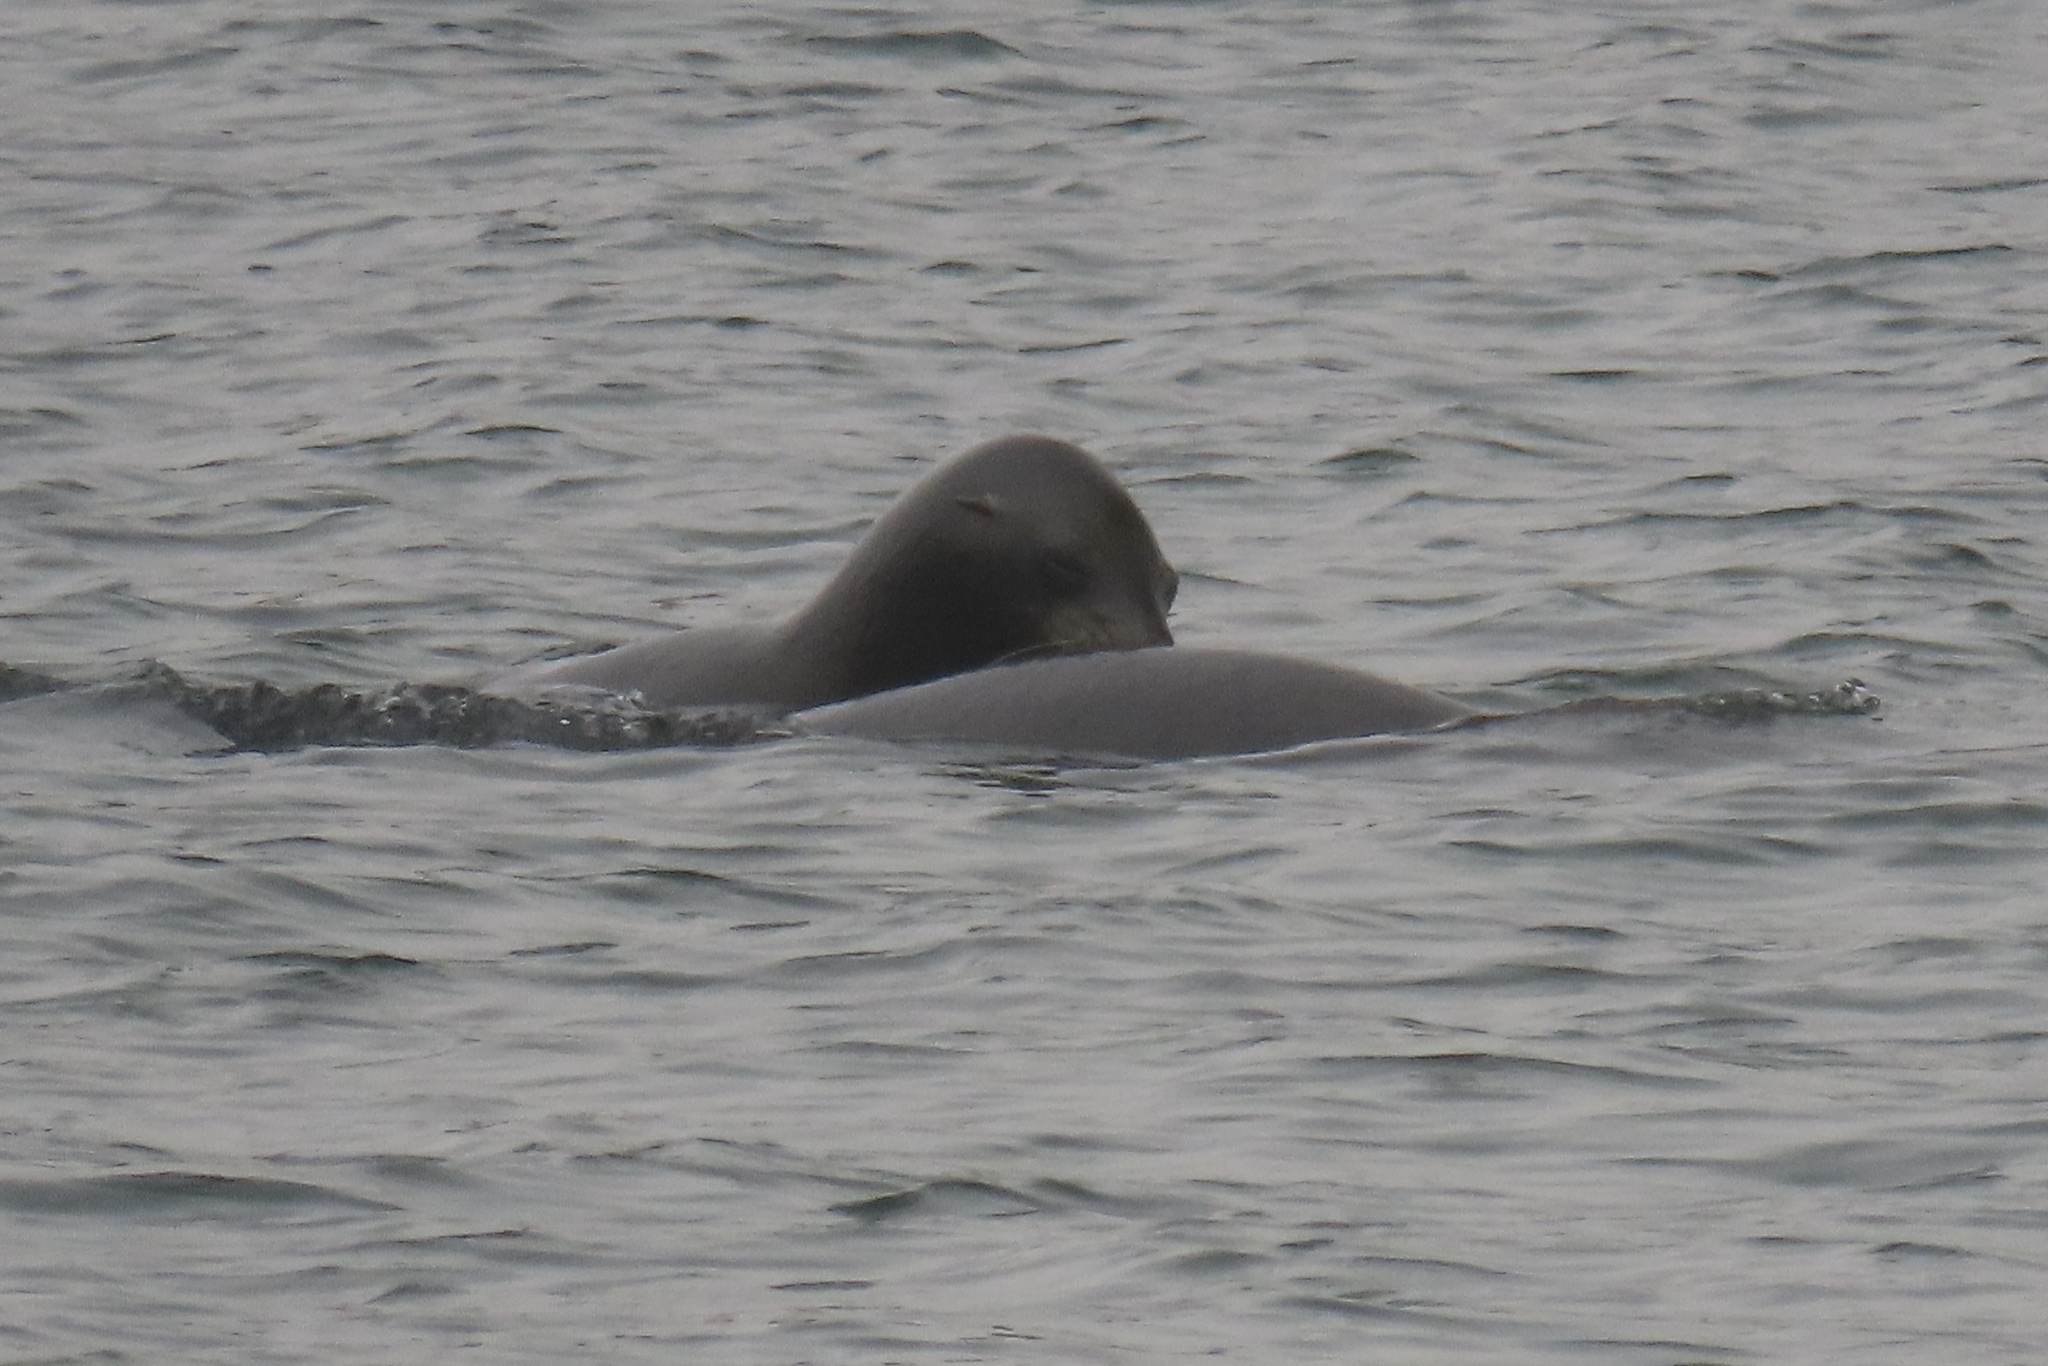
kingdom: Animalia
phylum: Chordata
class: Mammalia
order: Carnivora
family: Otariidae
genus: Zalophus
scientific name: Zalophus californianus
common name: California sea lion
